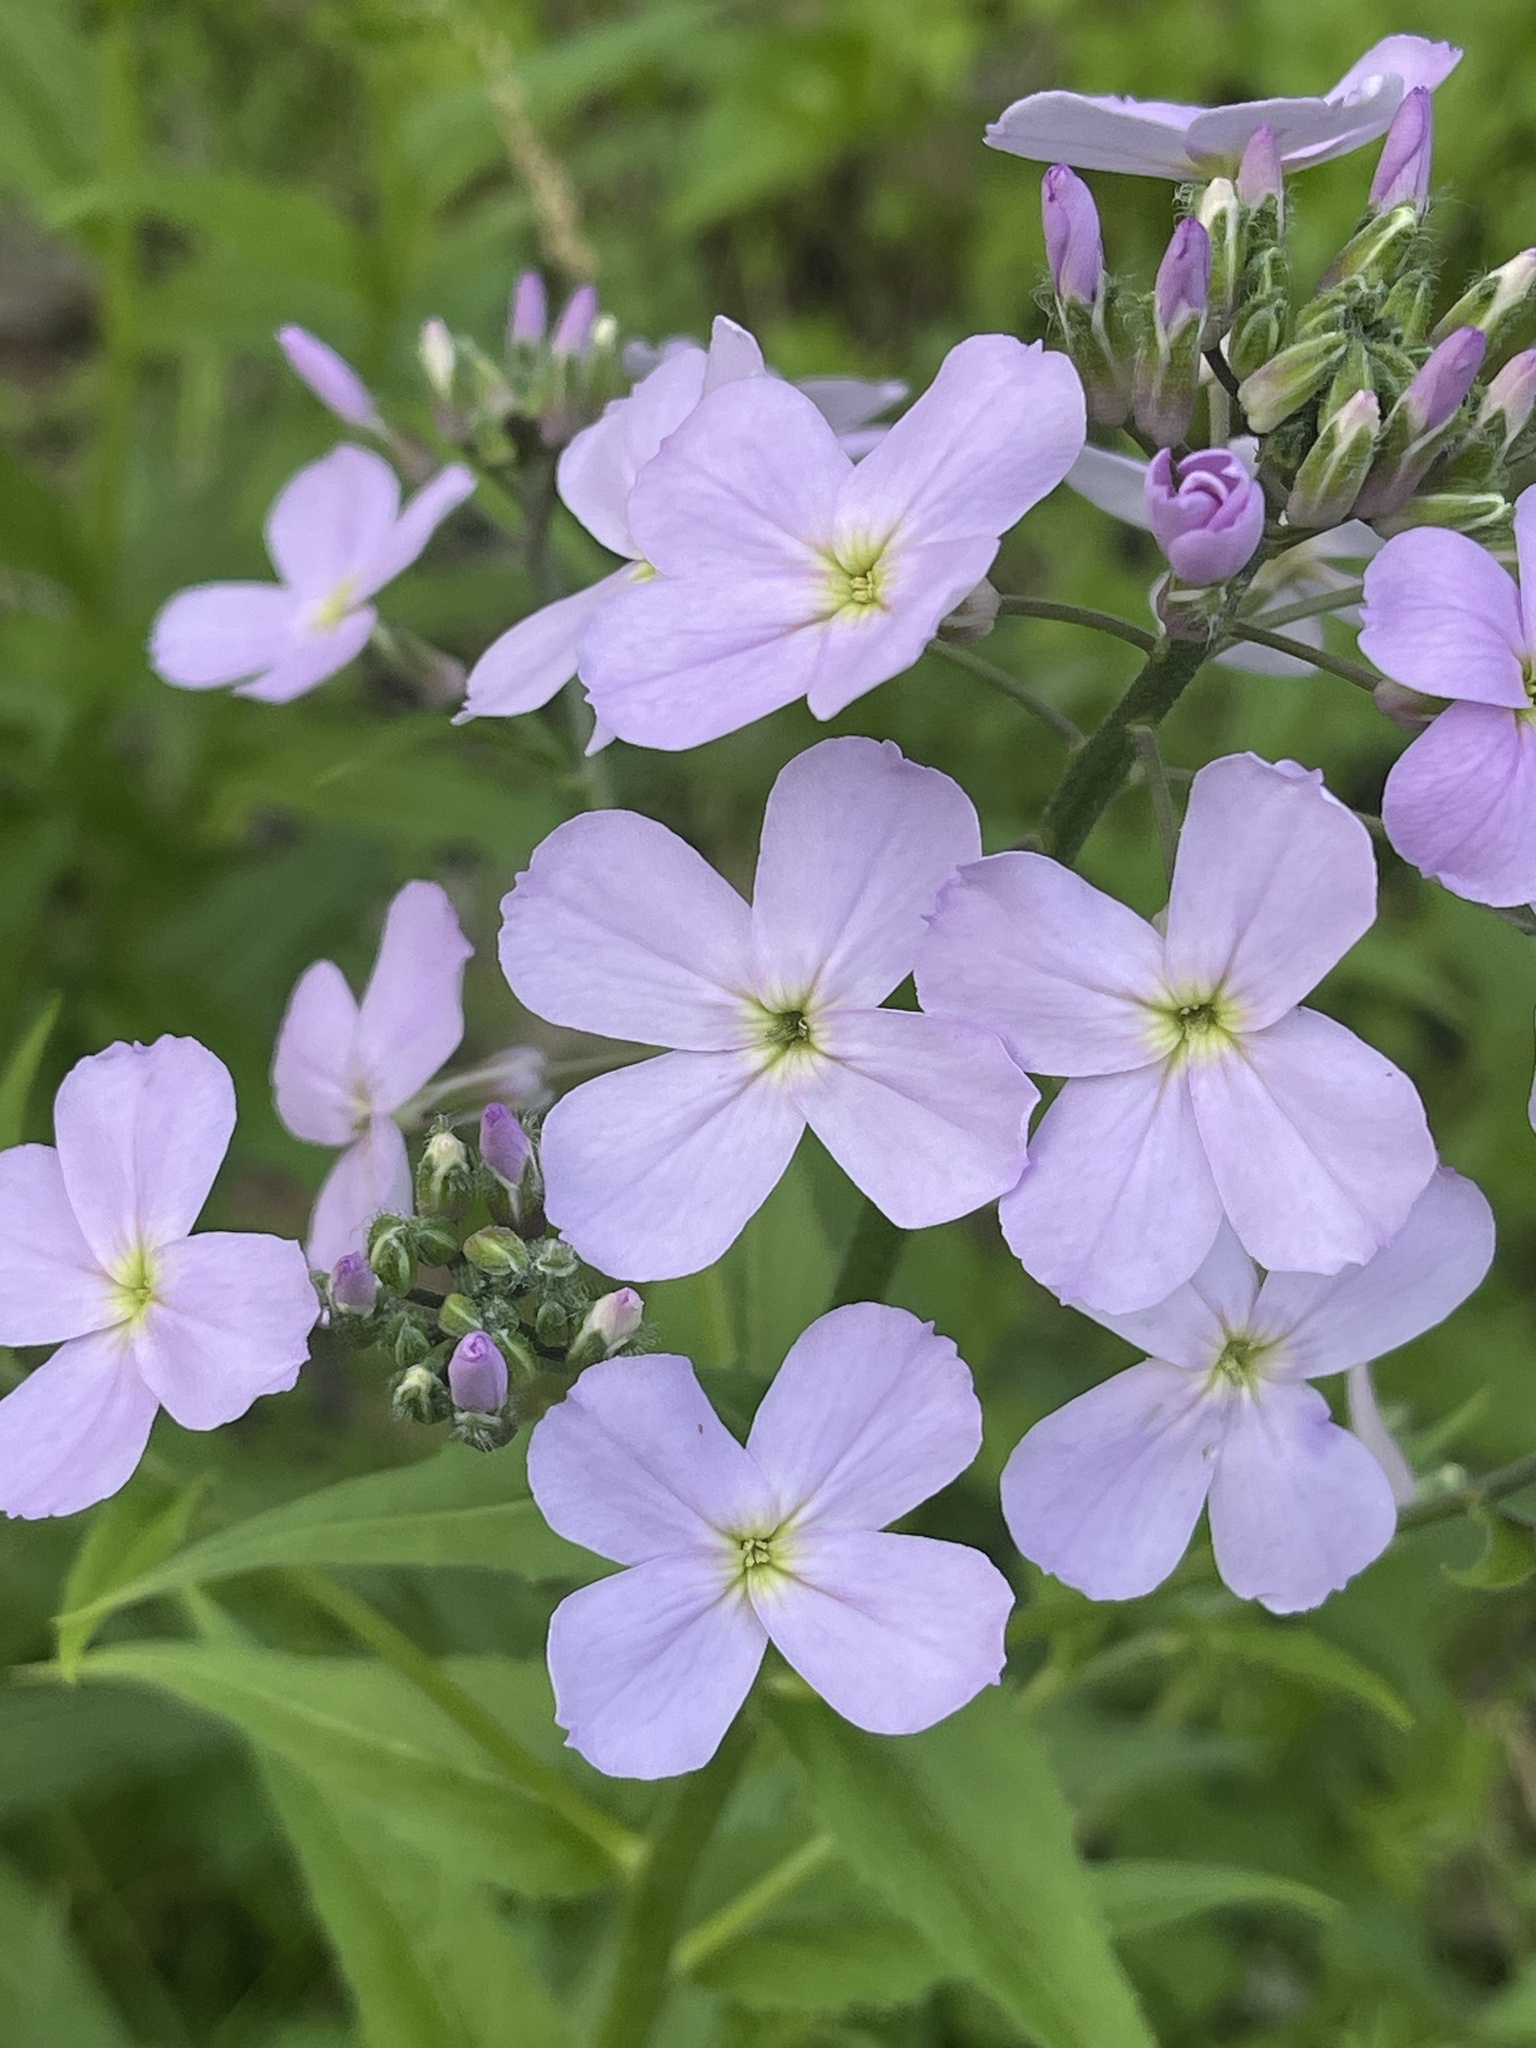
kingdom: Plantae
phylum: Tracheophyta
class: Magnoliopsida
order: Brassicales
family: Brassicaceae
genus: Hesperis
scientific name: Hesperis matronalis
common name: Dame's-violet
